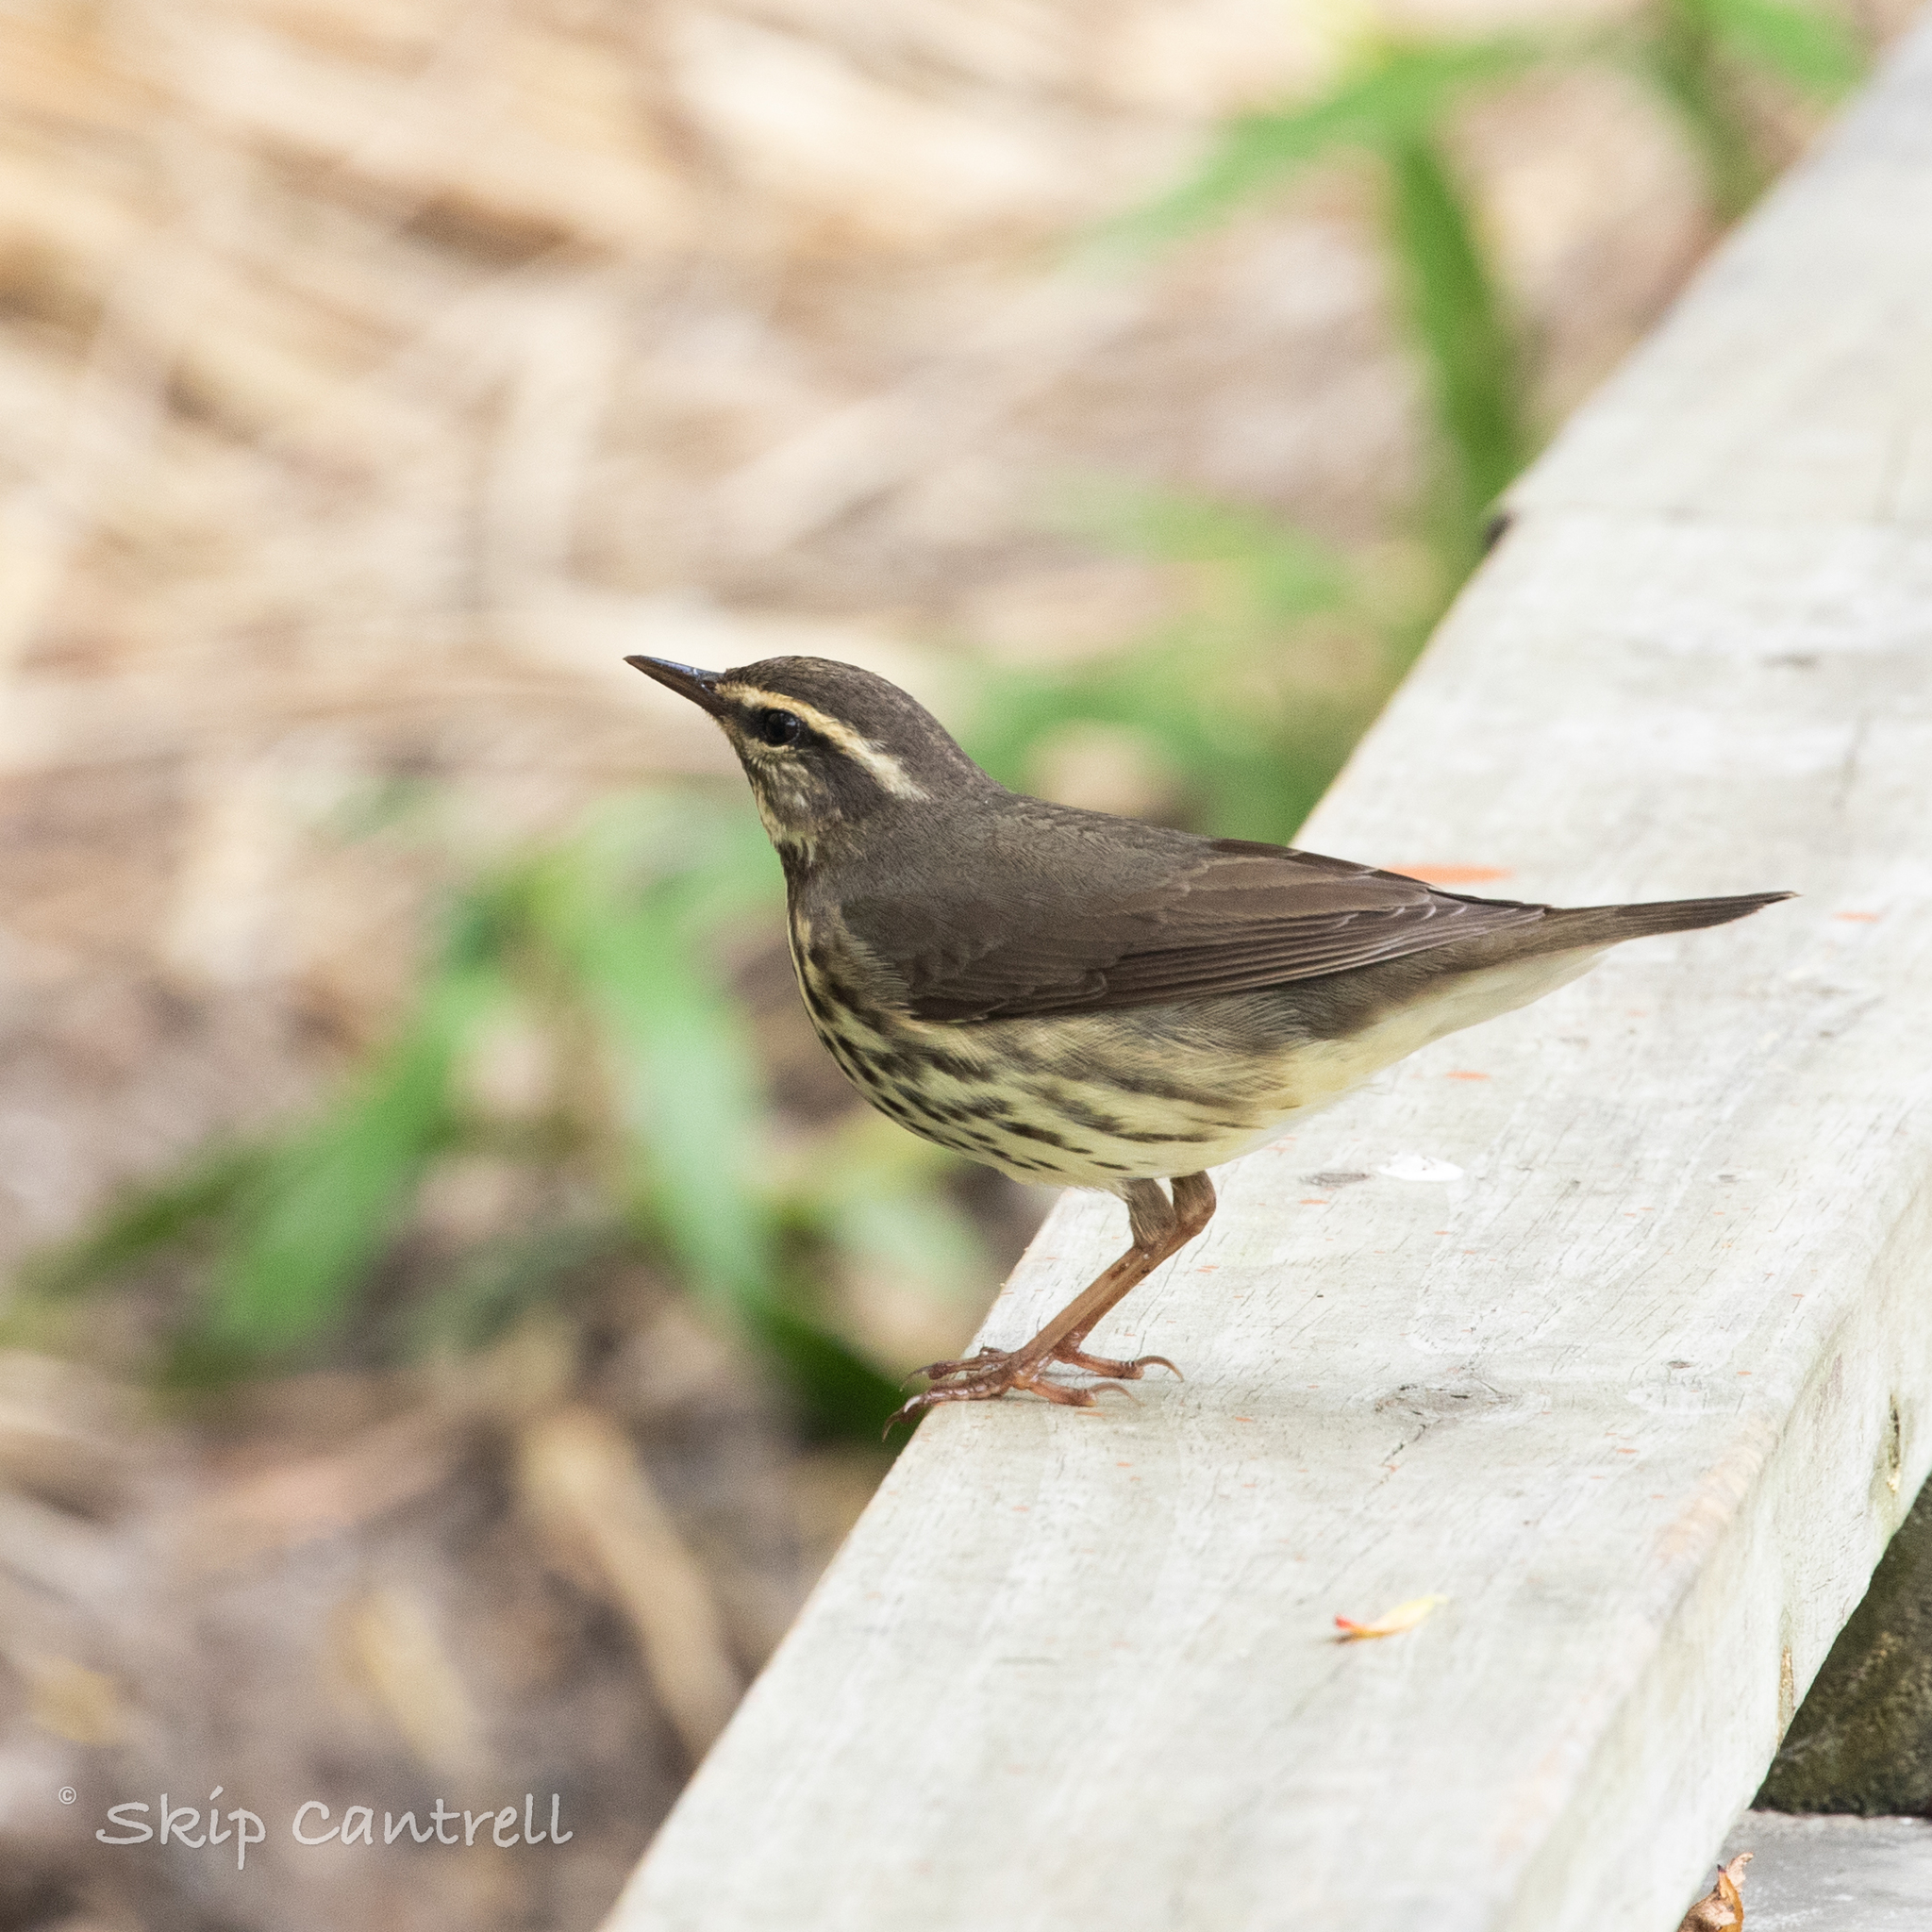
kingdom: Animalia
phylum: Chordata
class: Aves
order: Passeriformes
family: Parulidae
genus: Parkesia
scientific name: Parkesia noveboracensis
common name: Northern waterthrush
